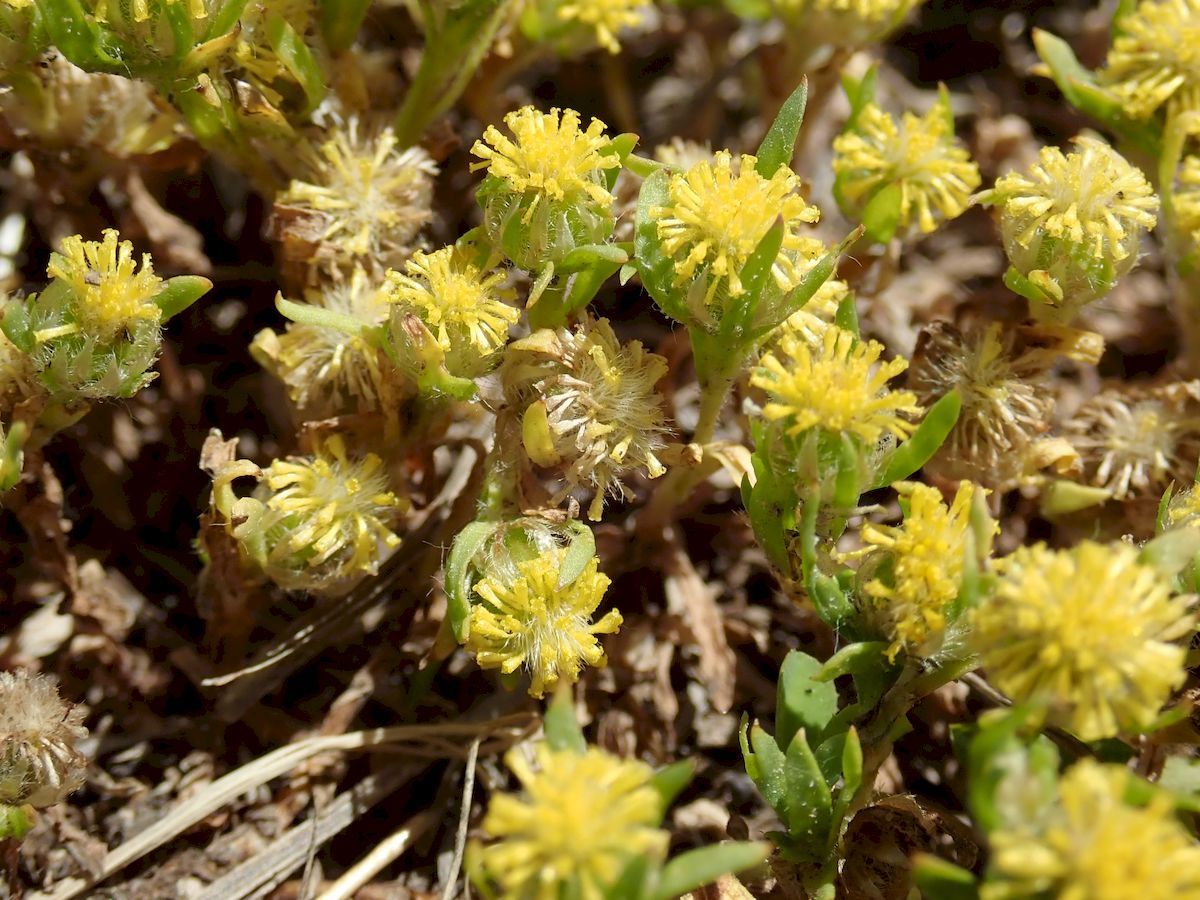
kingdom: Plantae
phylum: Tracheophyta
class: Magnoliopsida
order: Asterales
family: Asteraceae
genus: Triptilodiscus
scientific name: Triptilodiscus pygmaeus
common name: Common sunray
